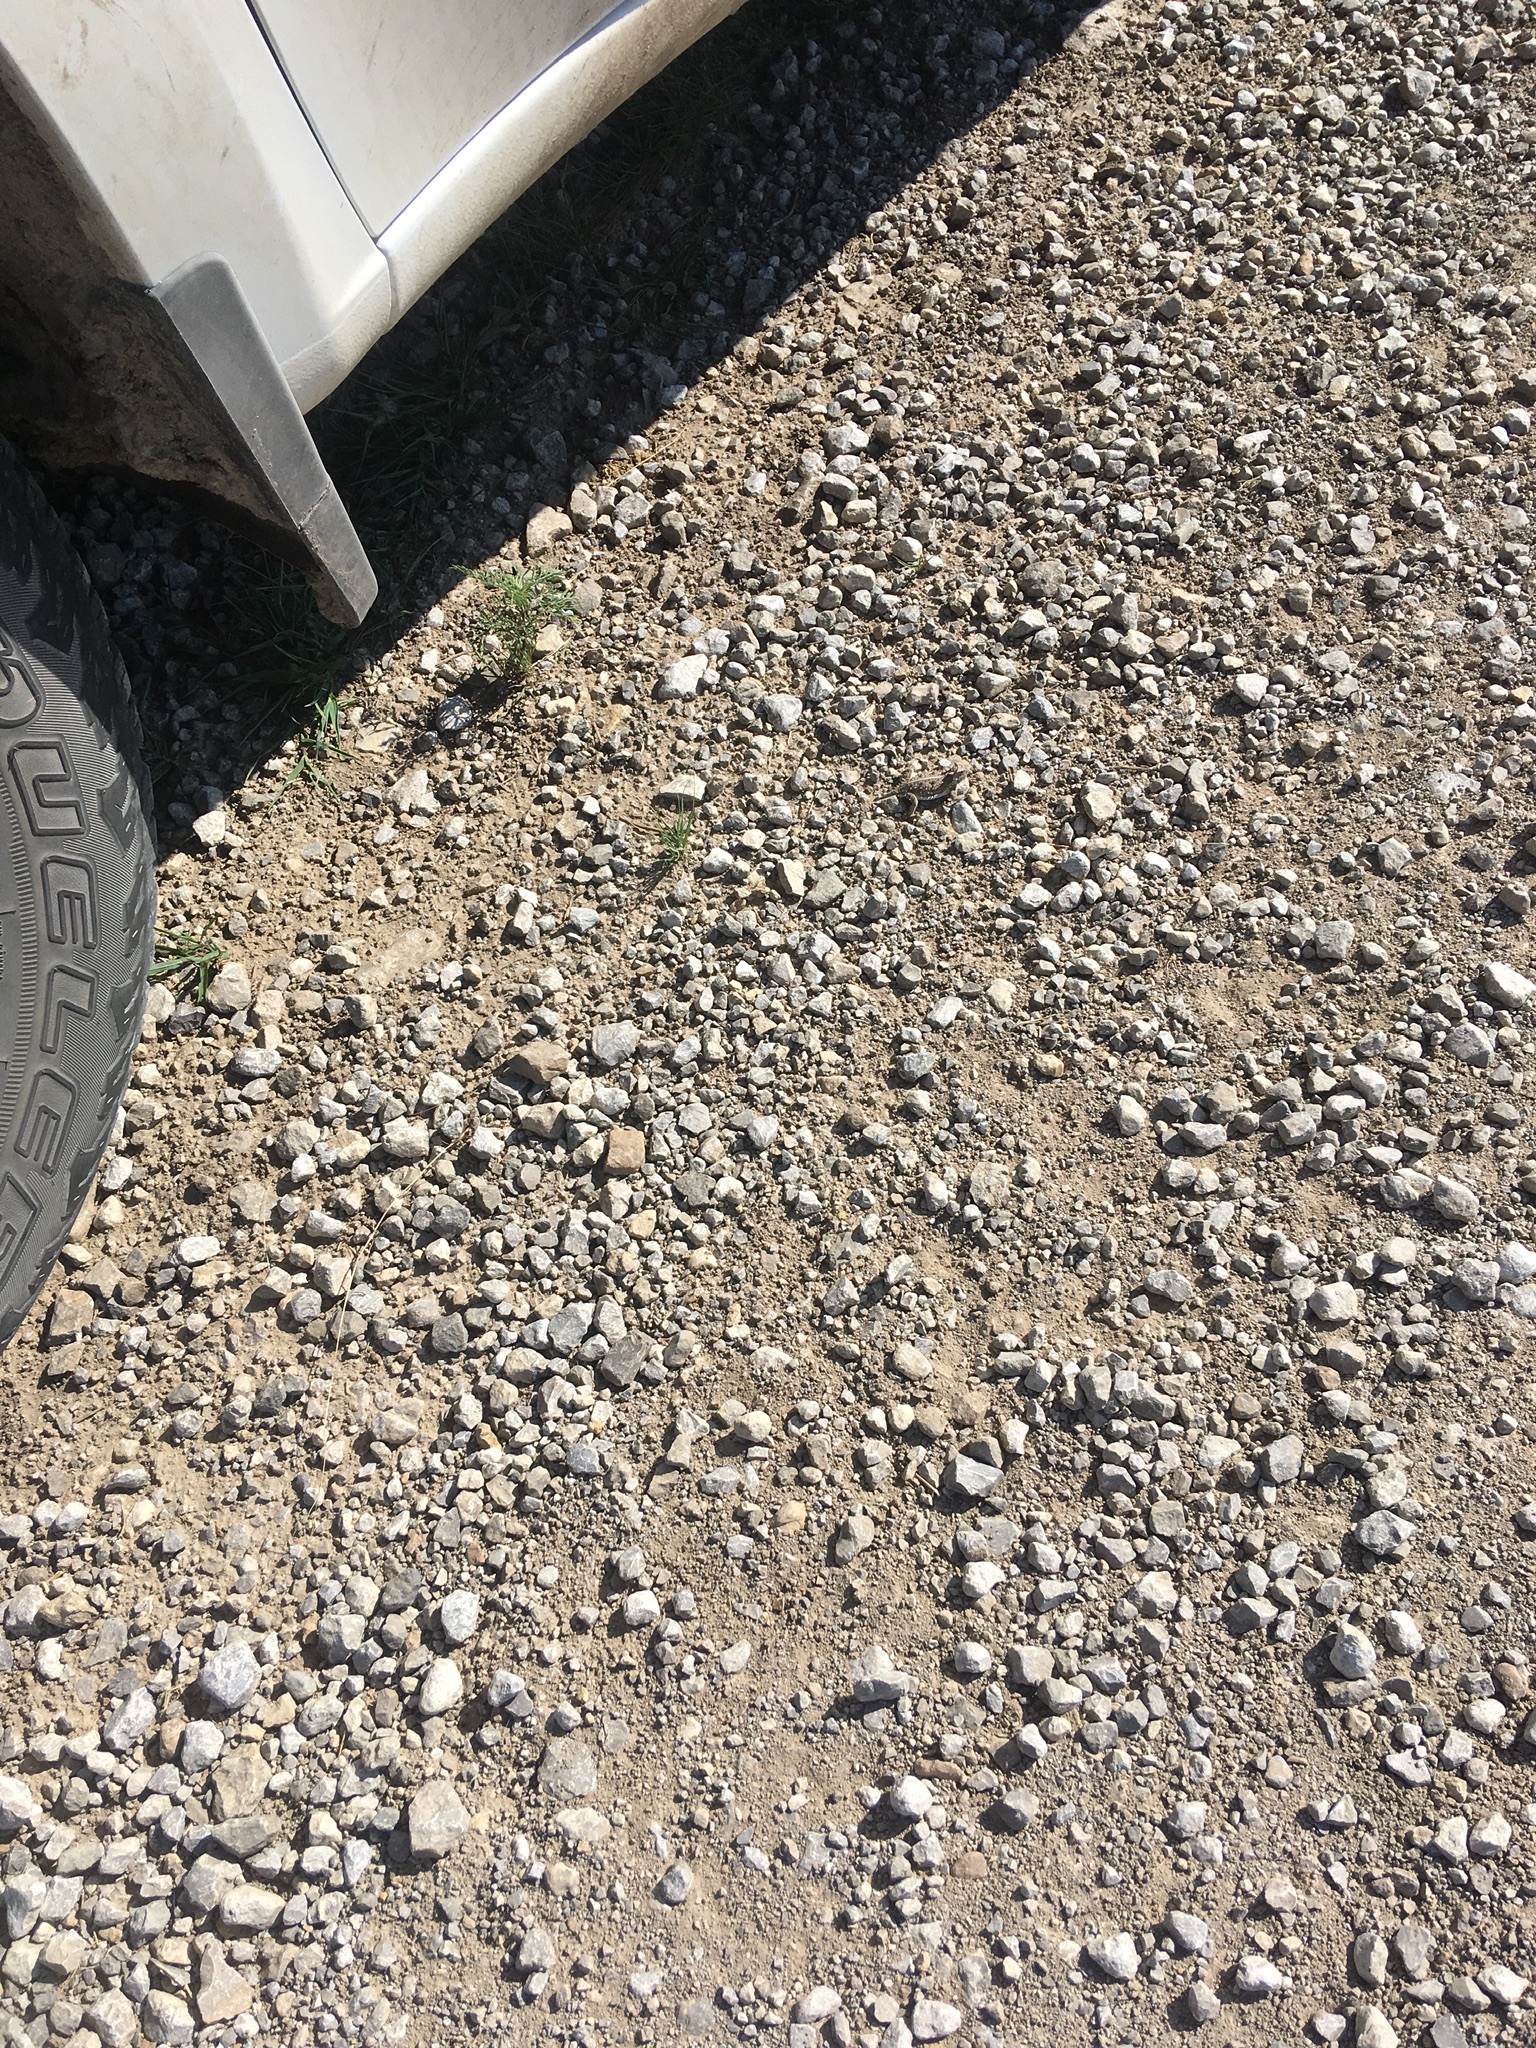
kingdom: Animalia
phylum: Chordata
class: Squamata
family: Phrynosomatidae
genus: Phrynosoma
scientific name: Phrynosoma cornutum
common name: Texas horned lizard
